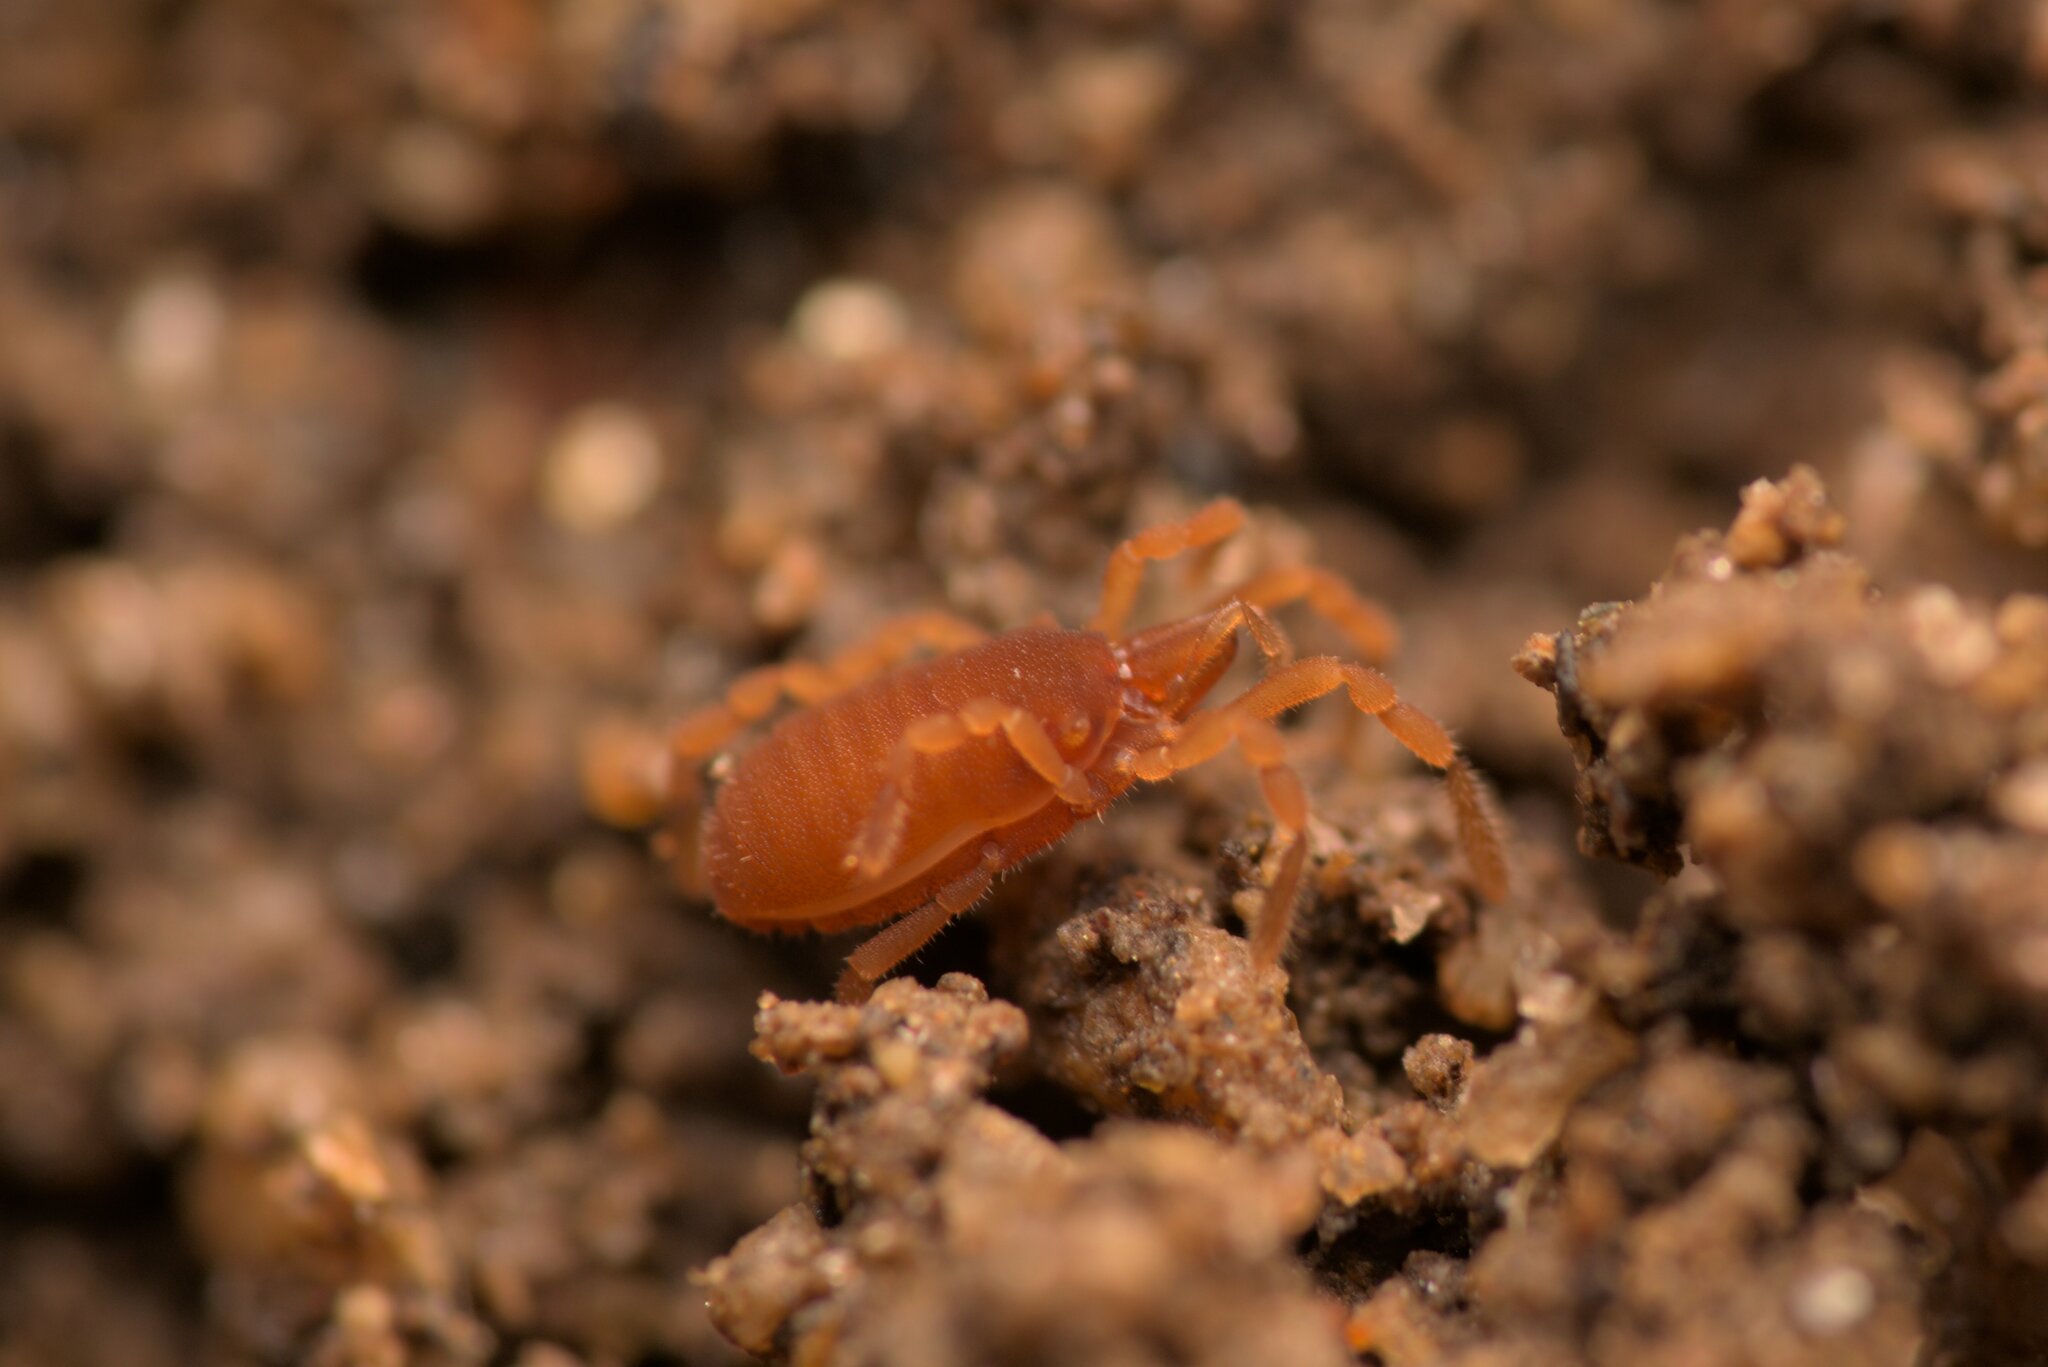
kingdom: Animalia
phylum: Arthropoda
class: Arachnida
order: Opiliones
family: Sironidae
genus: Siro
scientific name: Siro rubens
